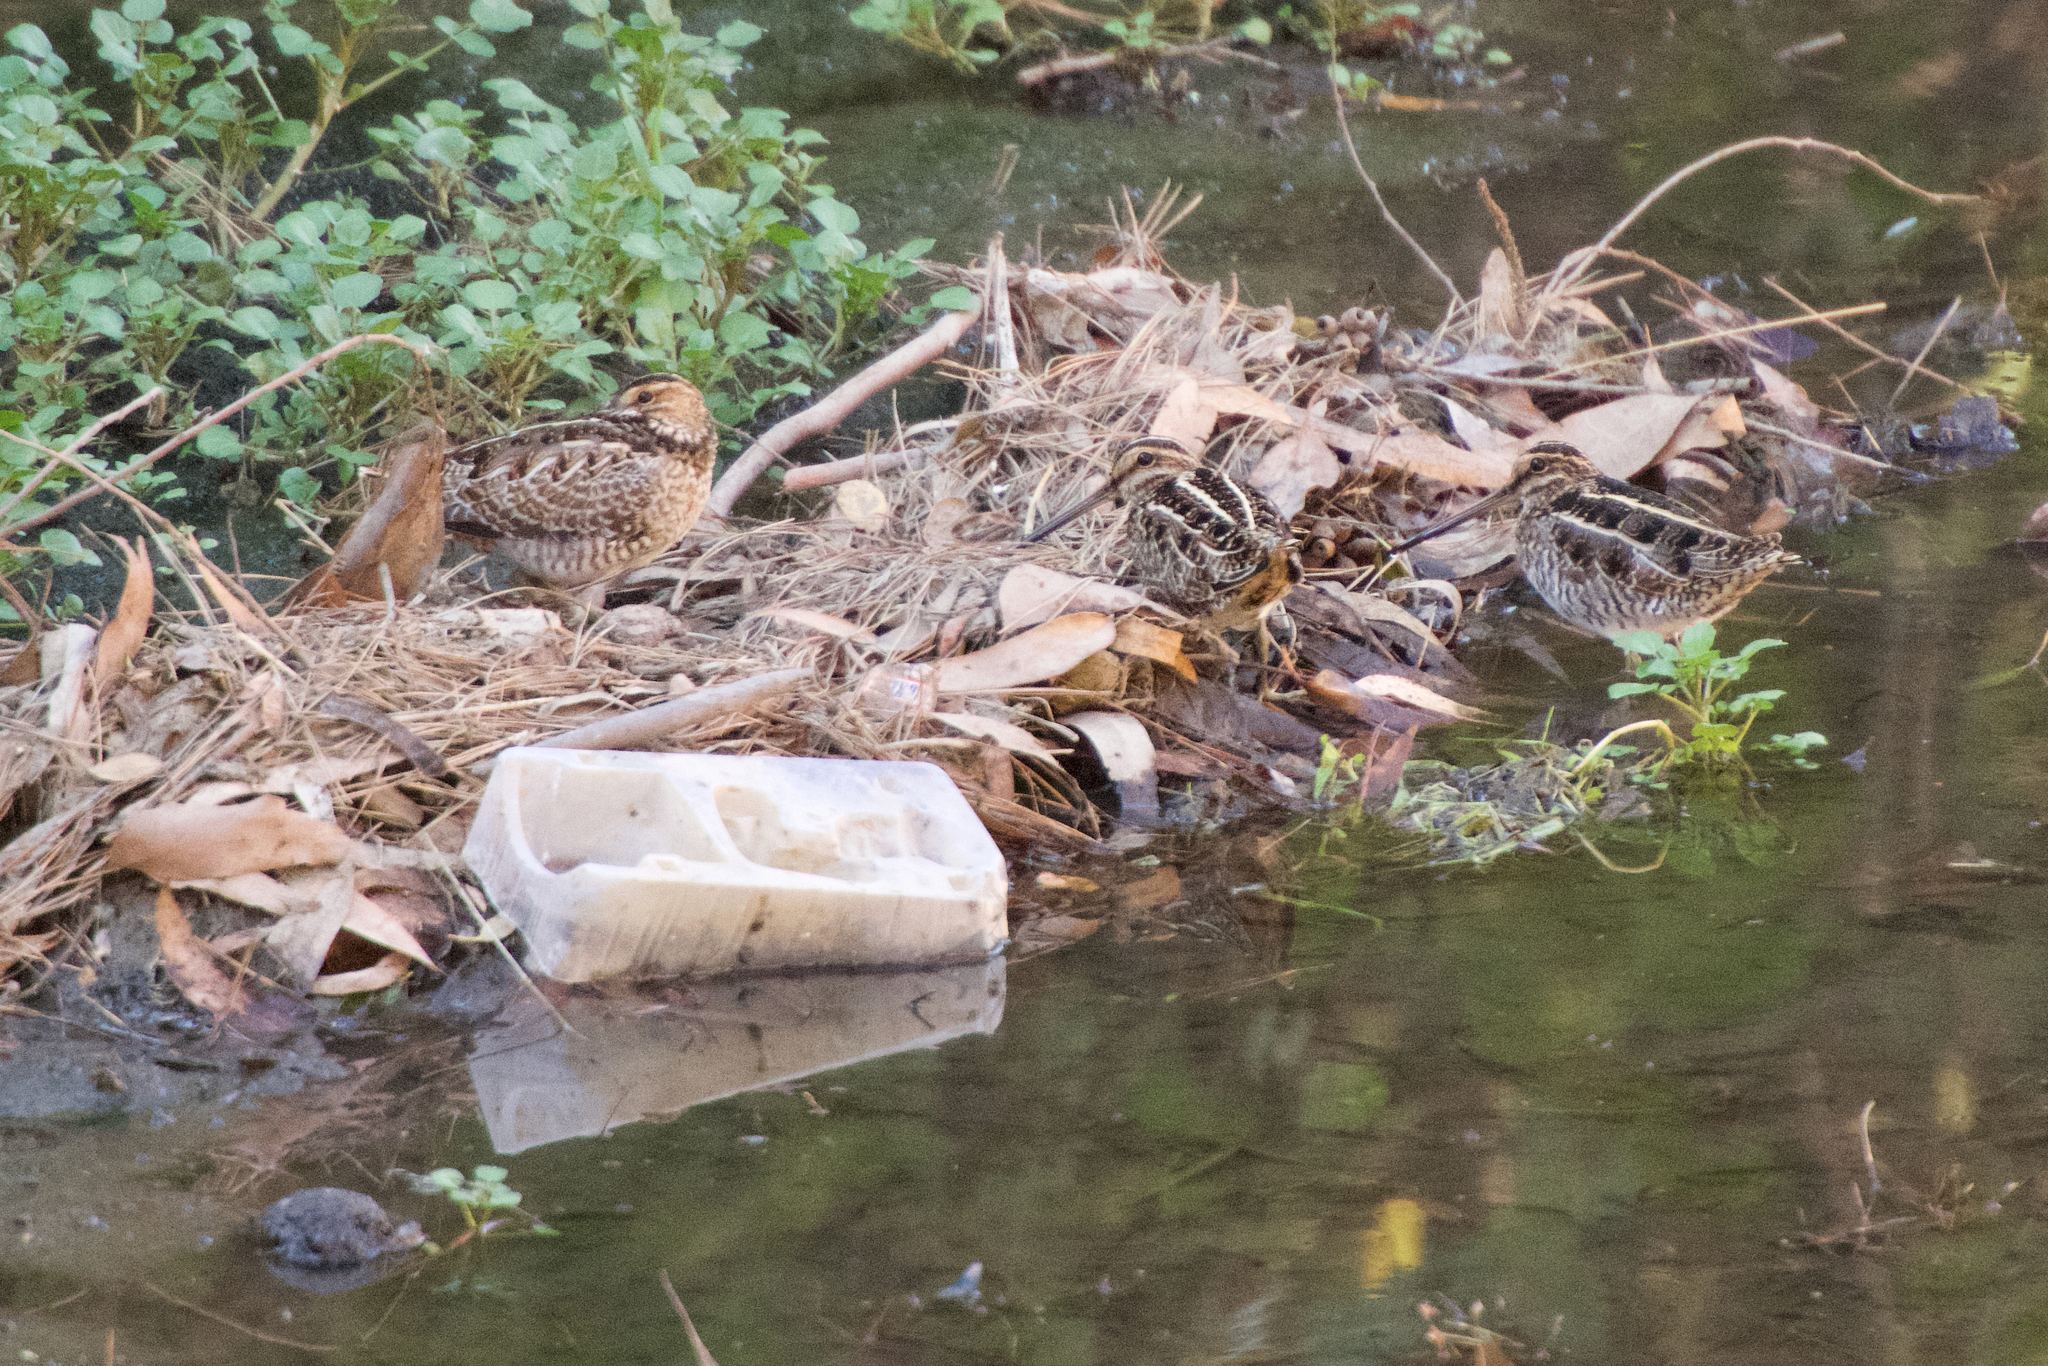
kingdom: Animalia
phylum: Chordata
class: Aves
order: Charadriiformes
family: Scolopacidae
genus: Gallinago
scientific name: Gallinago delicata
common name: Wilson's snipe
